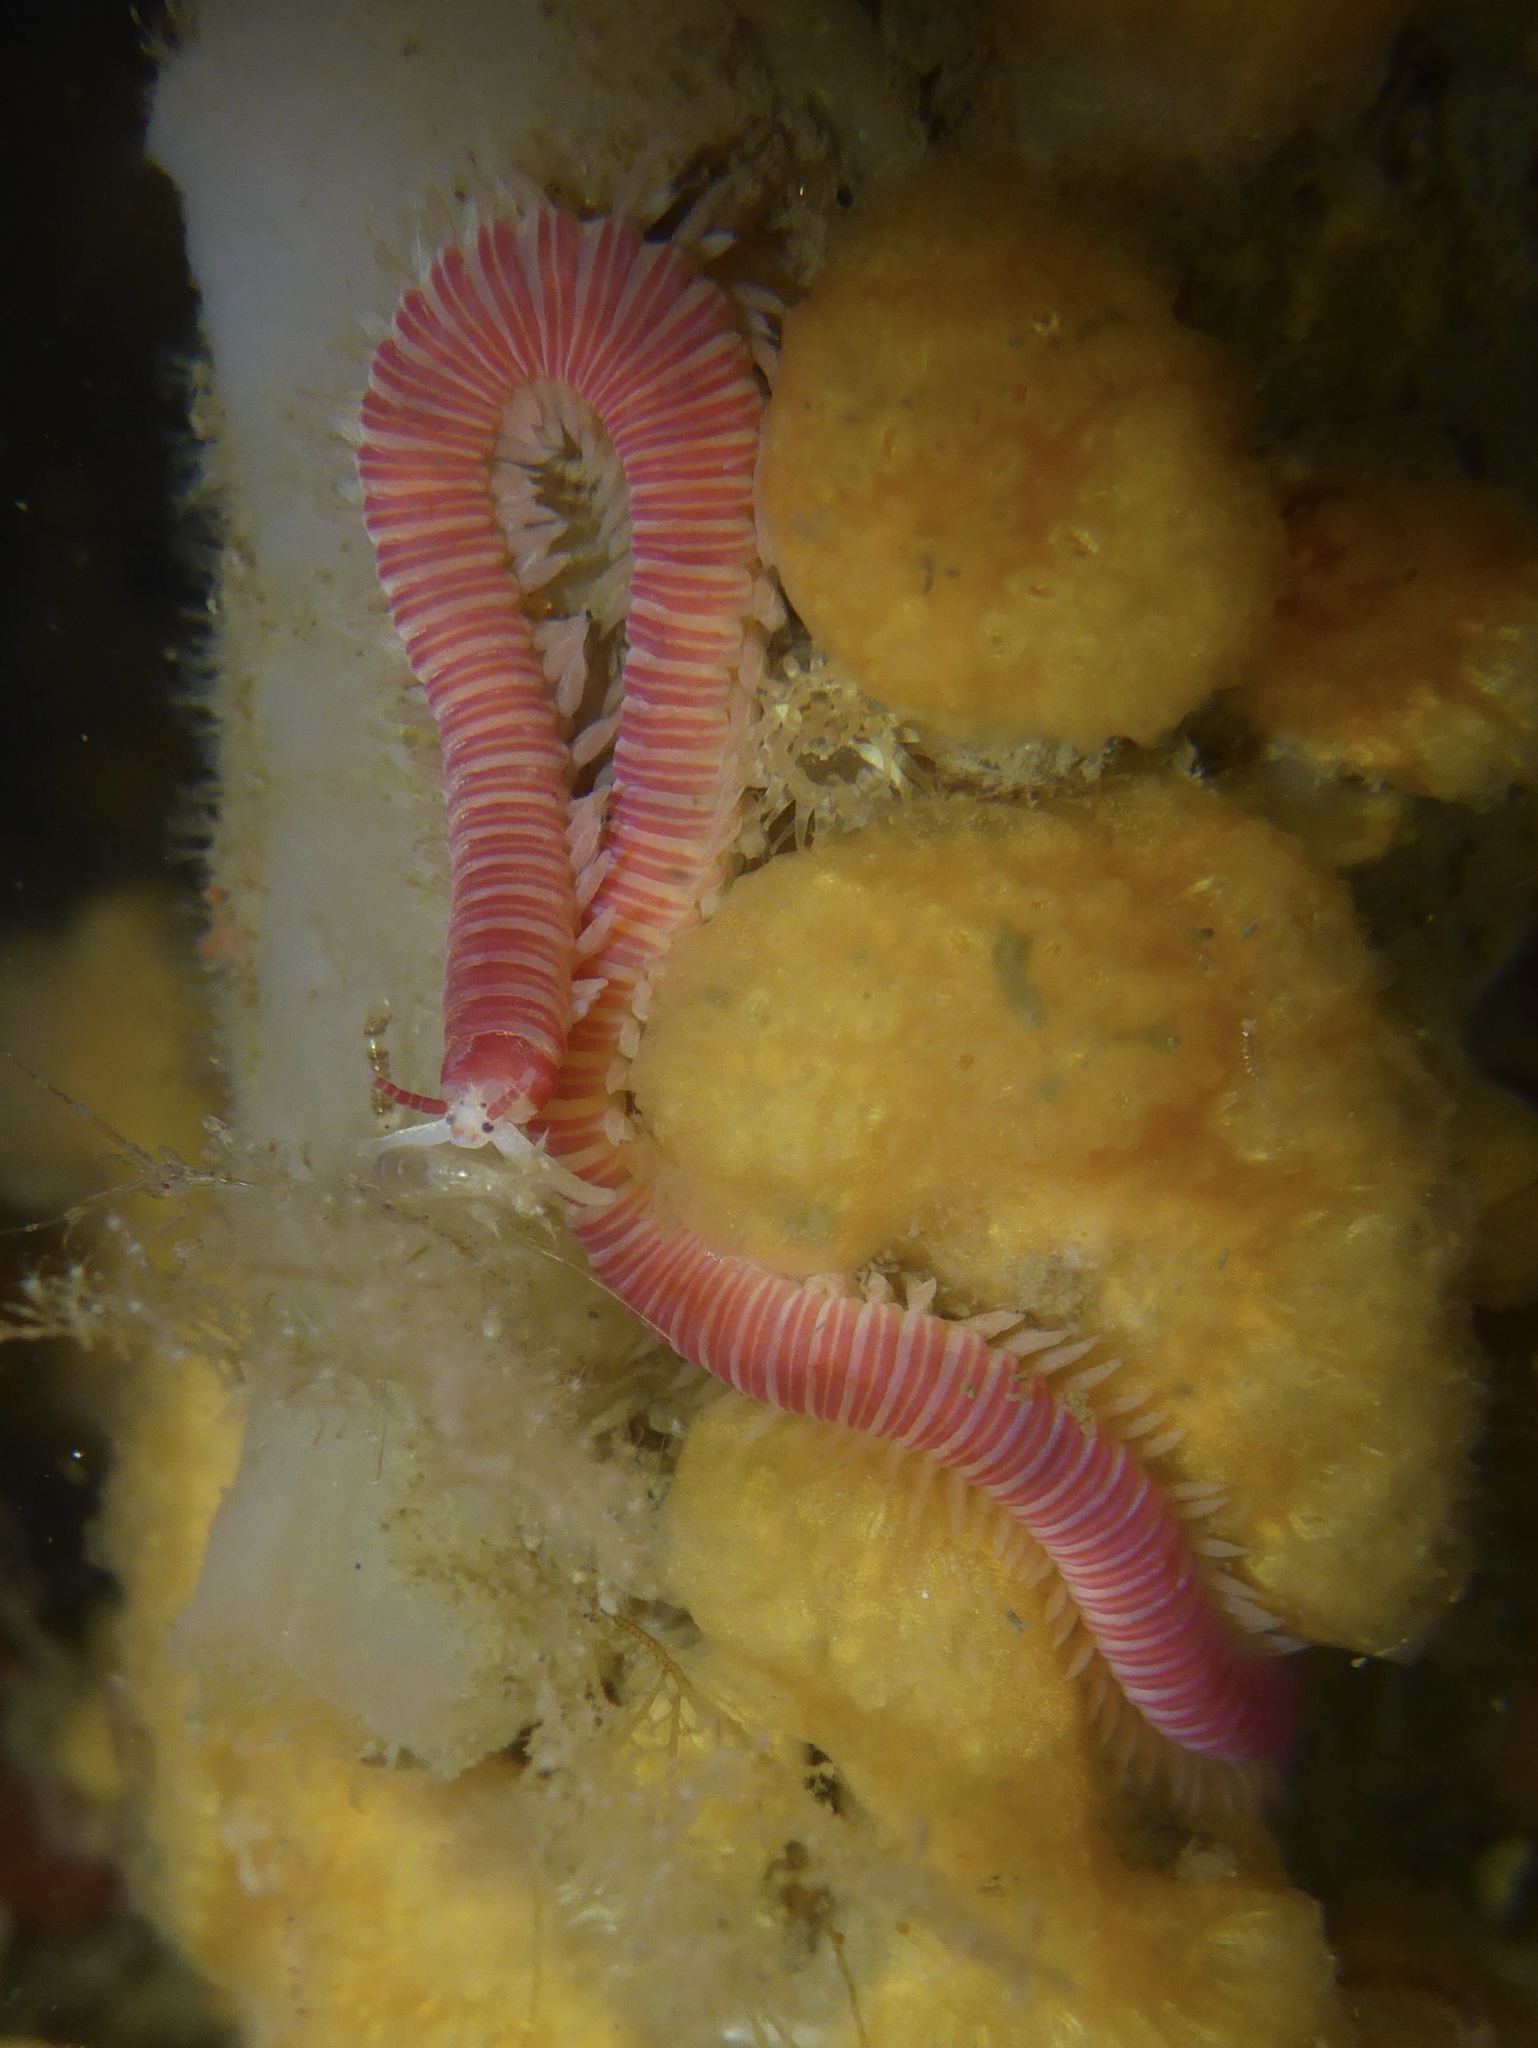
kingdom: Animalia
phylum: Annelida
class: Polychaeta
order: Eunicida
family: Dorvilleidae
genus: Dorvillea
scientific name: Dorvillea moniloceras
